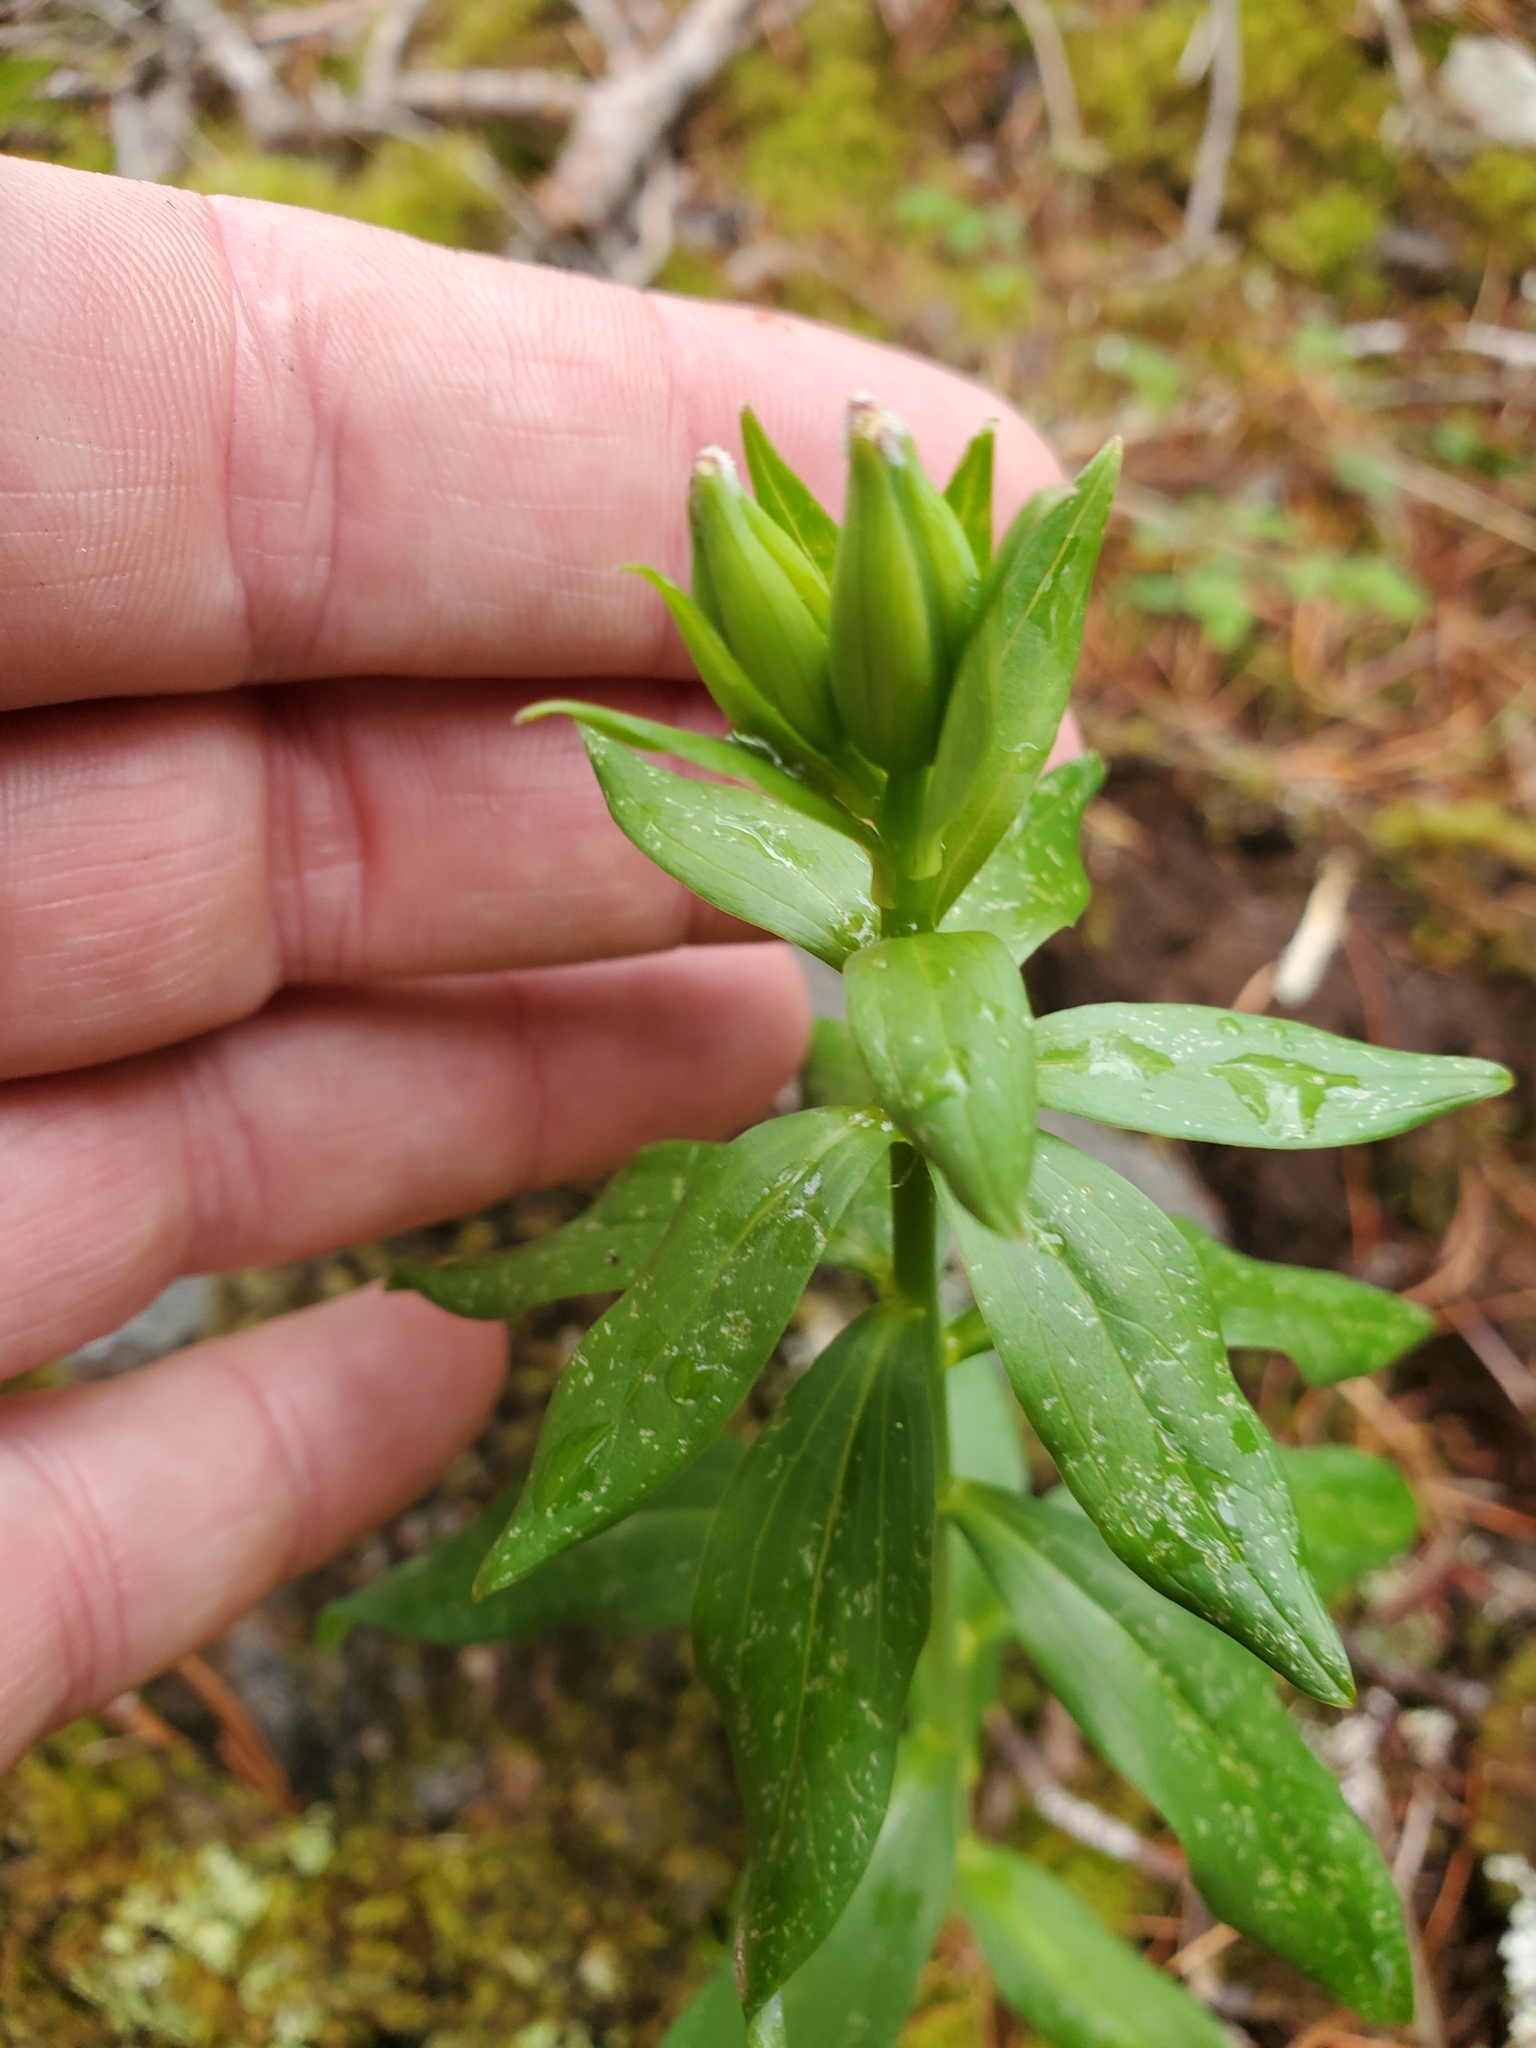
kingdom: Plantae
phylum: Tracheophyta
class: Liliopsida
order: Liliales
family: Liliaceae
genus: Lilium
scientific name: Lilium columbianum
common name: Columbia lily
